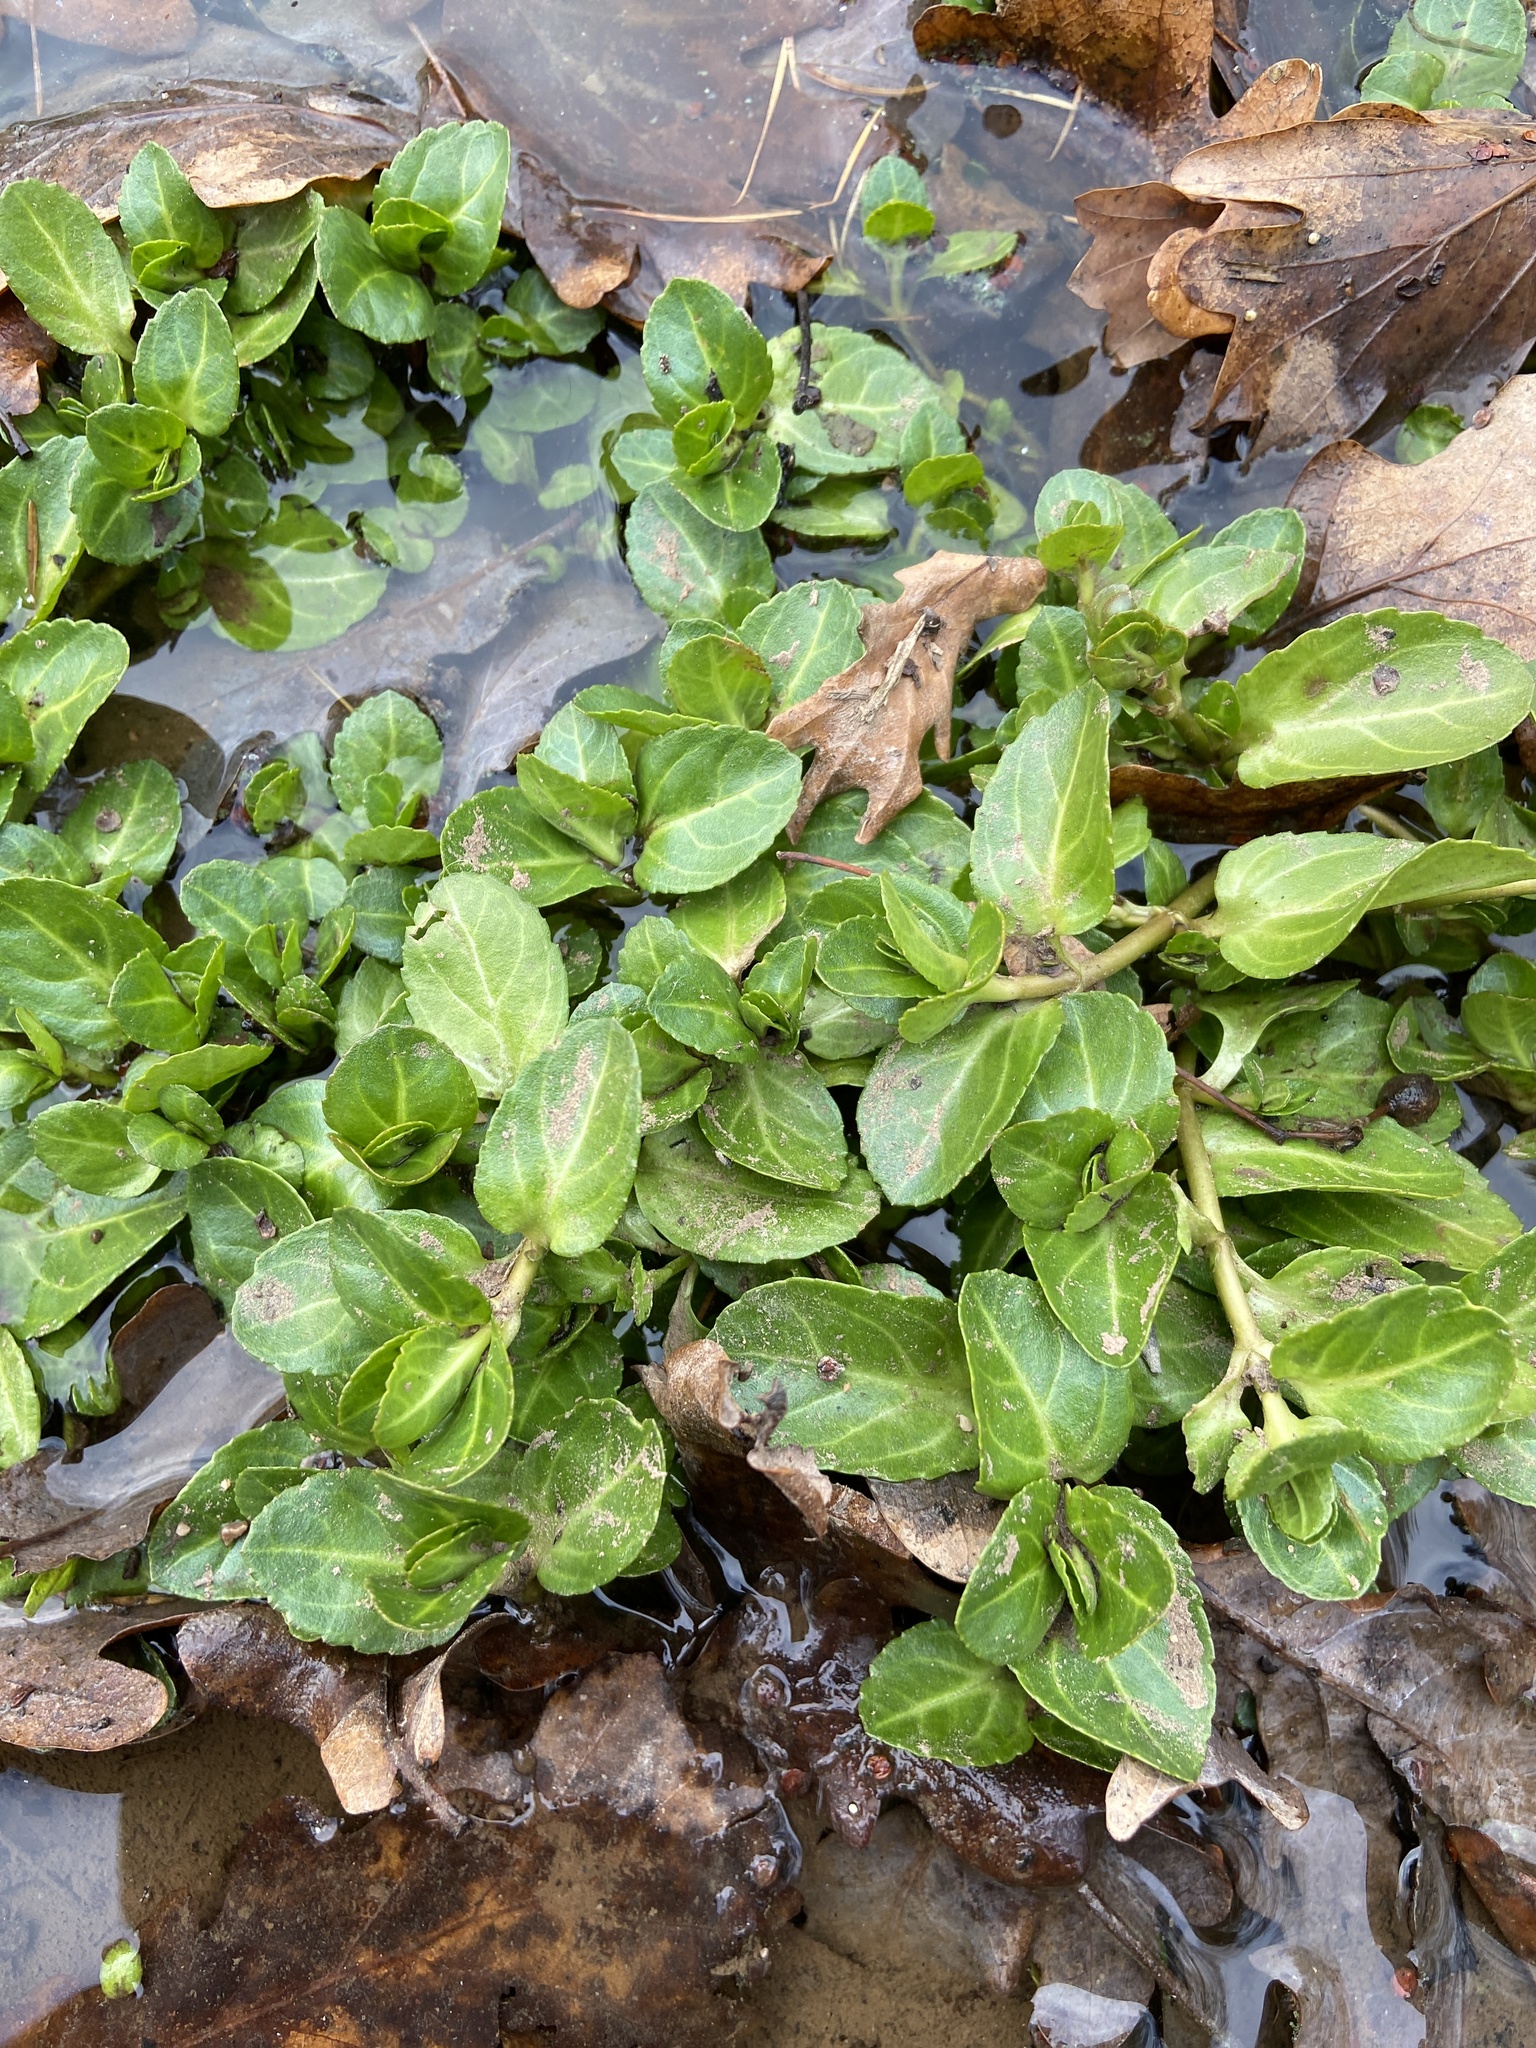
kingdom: Plantae
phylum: Tracheophyta
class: Magnoliopsida
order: Lamiales
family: Plantaginaceae
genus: Veronica
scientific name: Veronica beccabunga
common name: Brooklime
